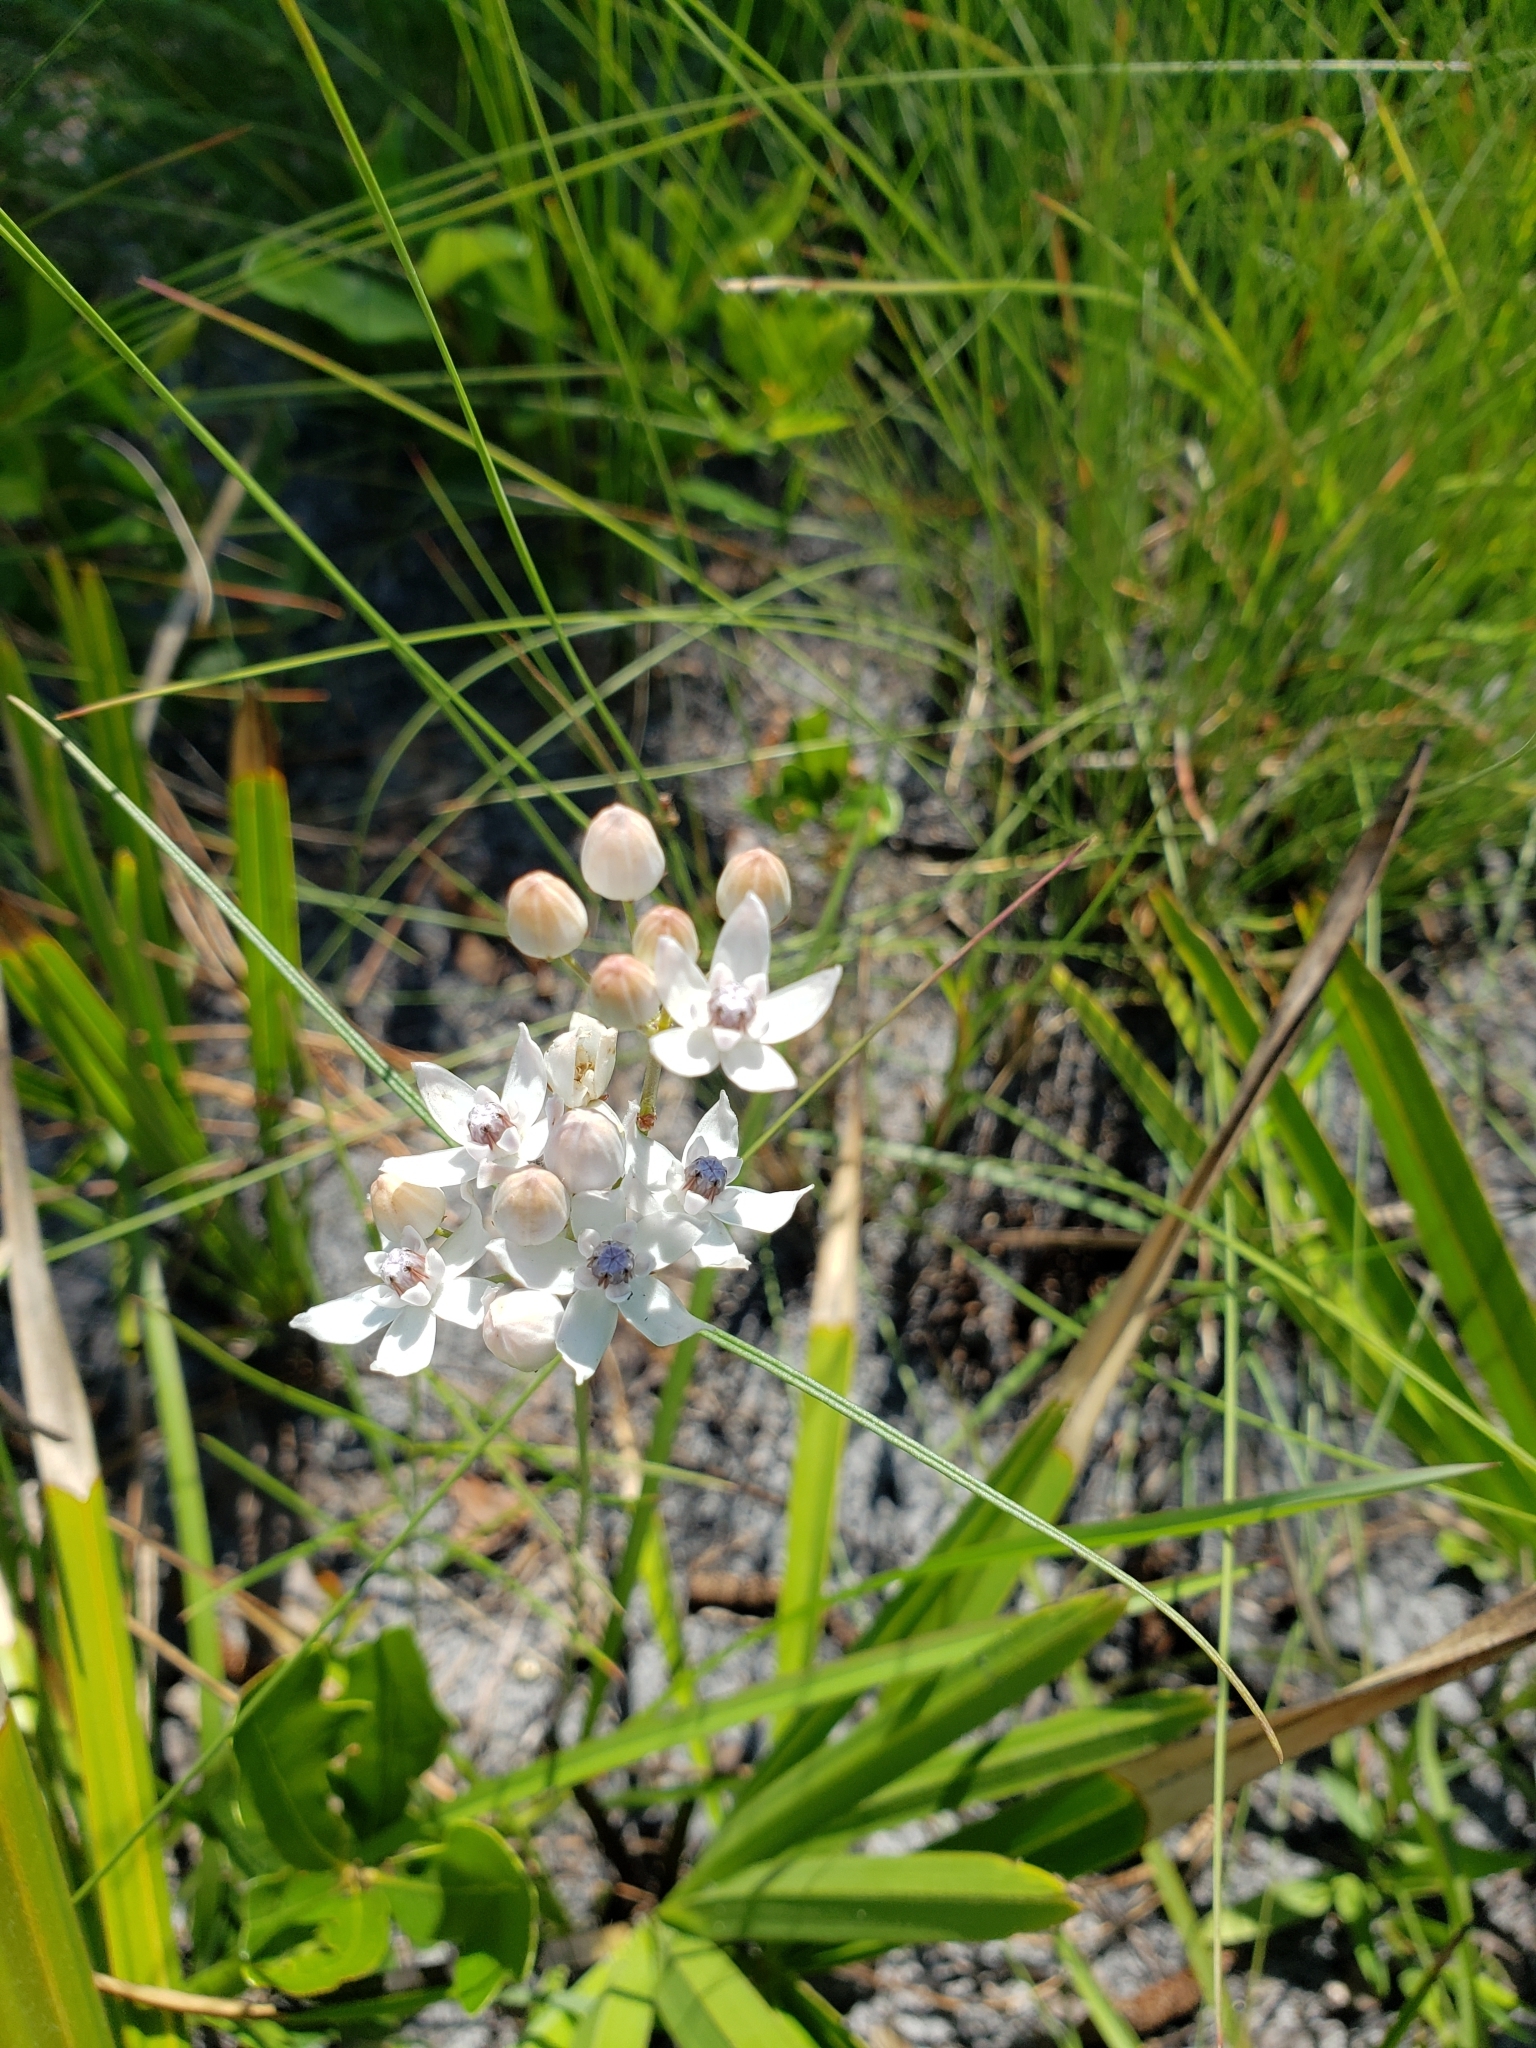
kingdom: Plantae
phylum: Tracheophyta
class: Magnoliopsida
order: Gentianales
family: Apocynaceae
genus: Asclepias
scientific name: Asclepias feayi
